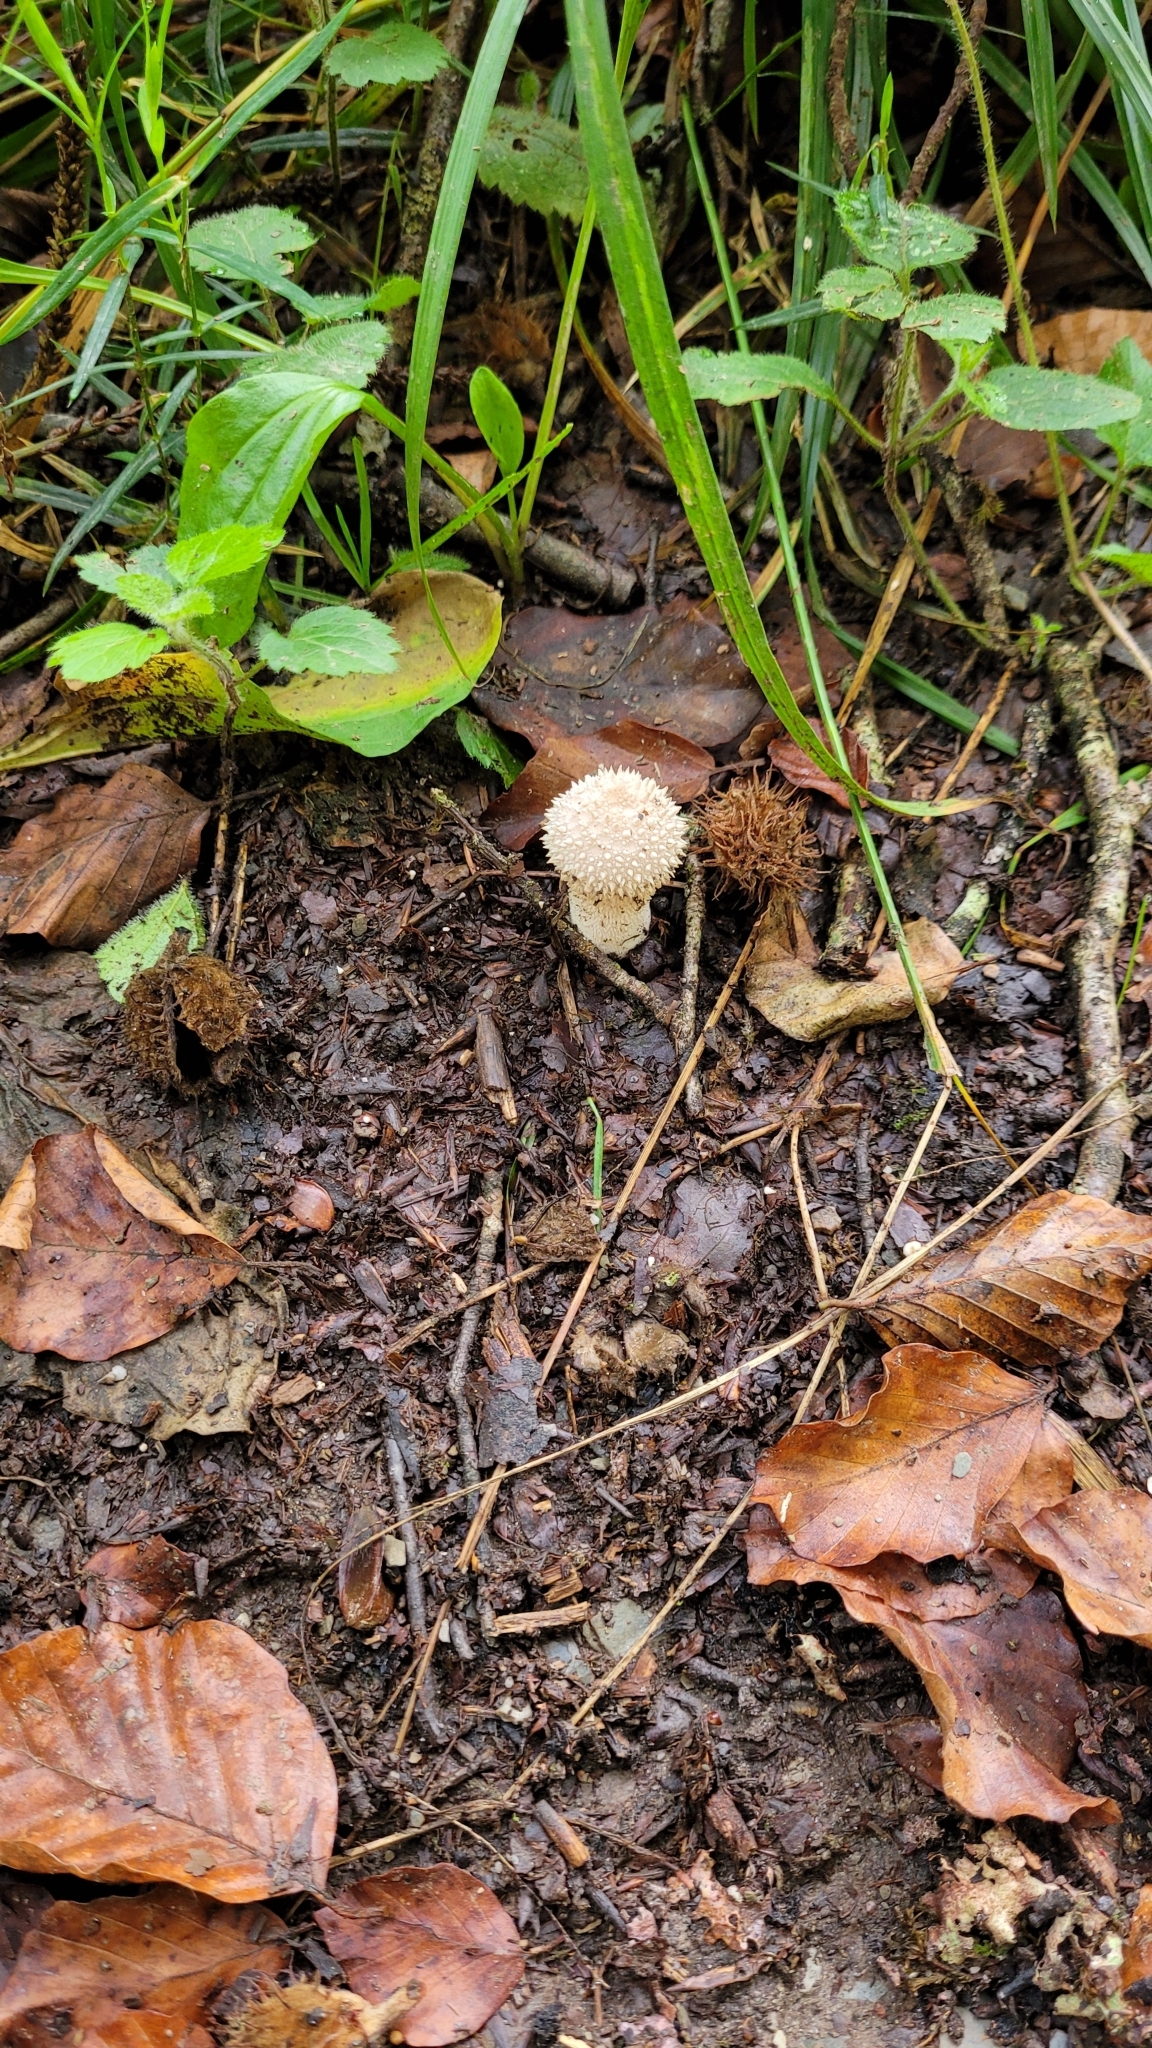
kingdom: Fungi
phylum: Basidiomycota
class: Agaricomycetes
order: Agaricales
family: Lycoperdaceae
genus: Lycoperdon
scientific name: Lycoperdon perlatum
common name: Common puffball
